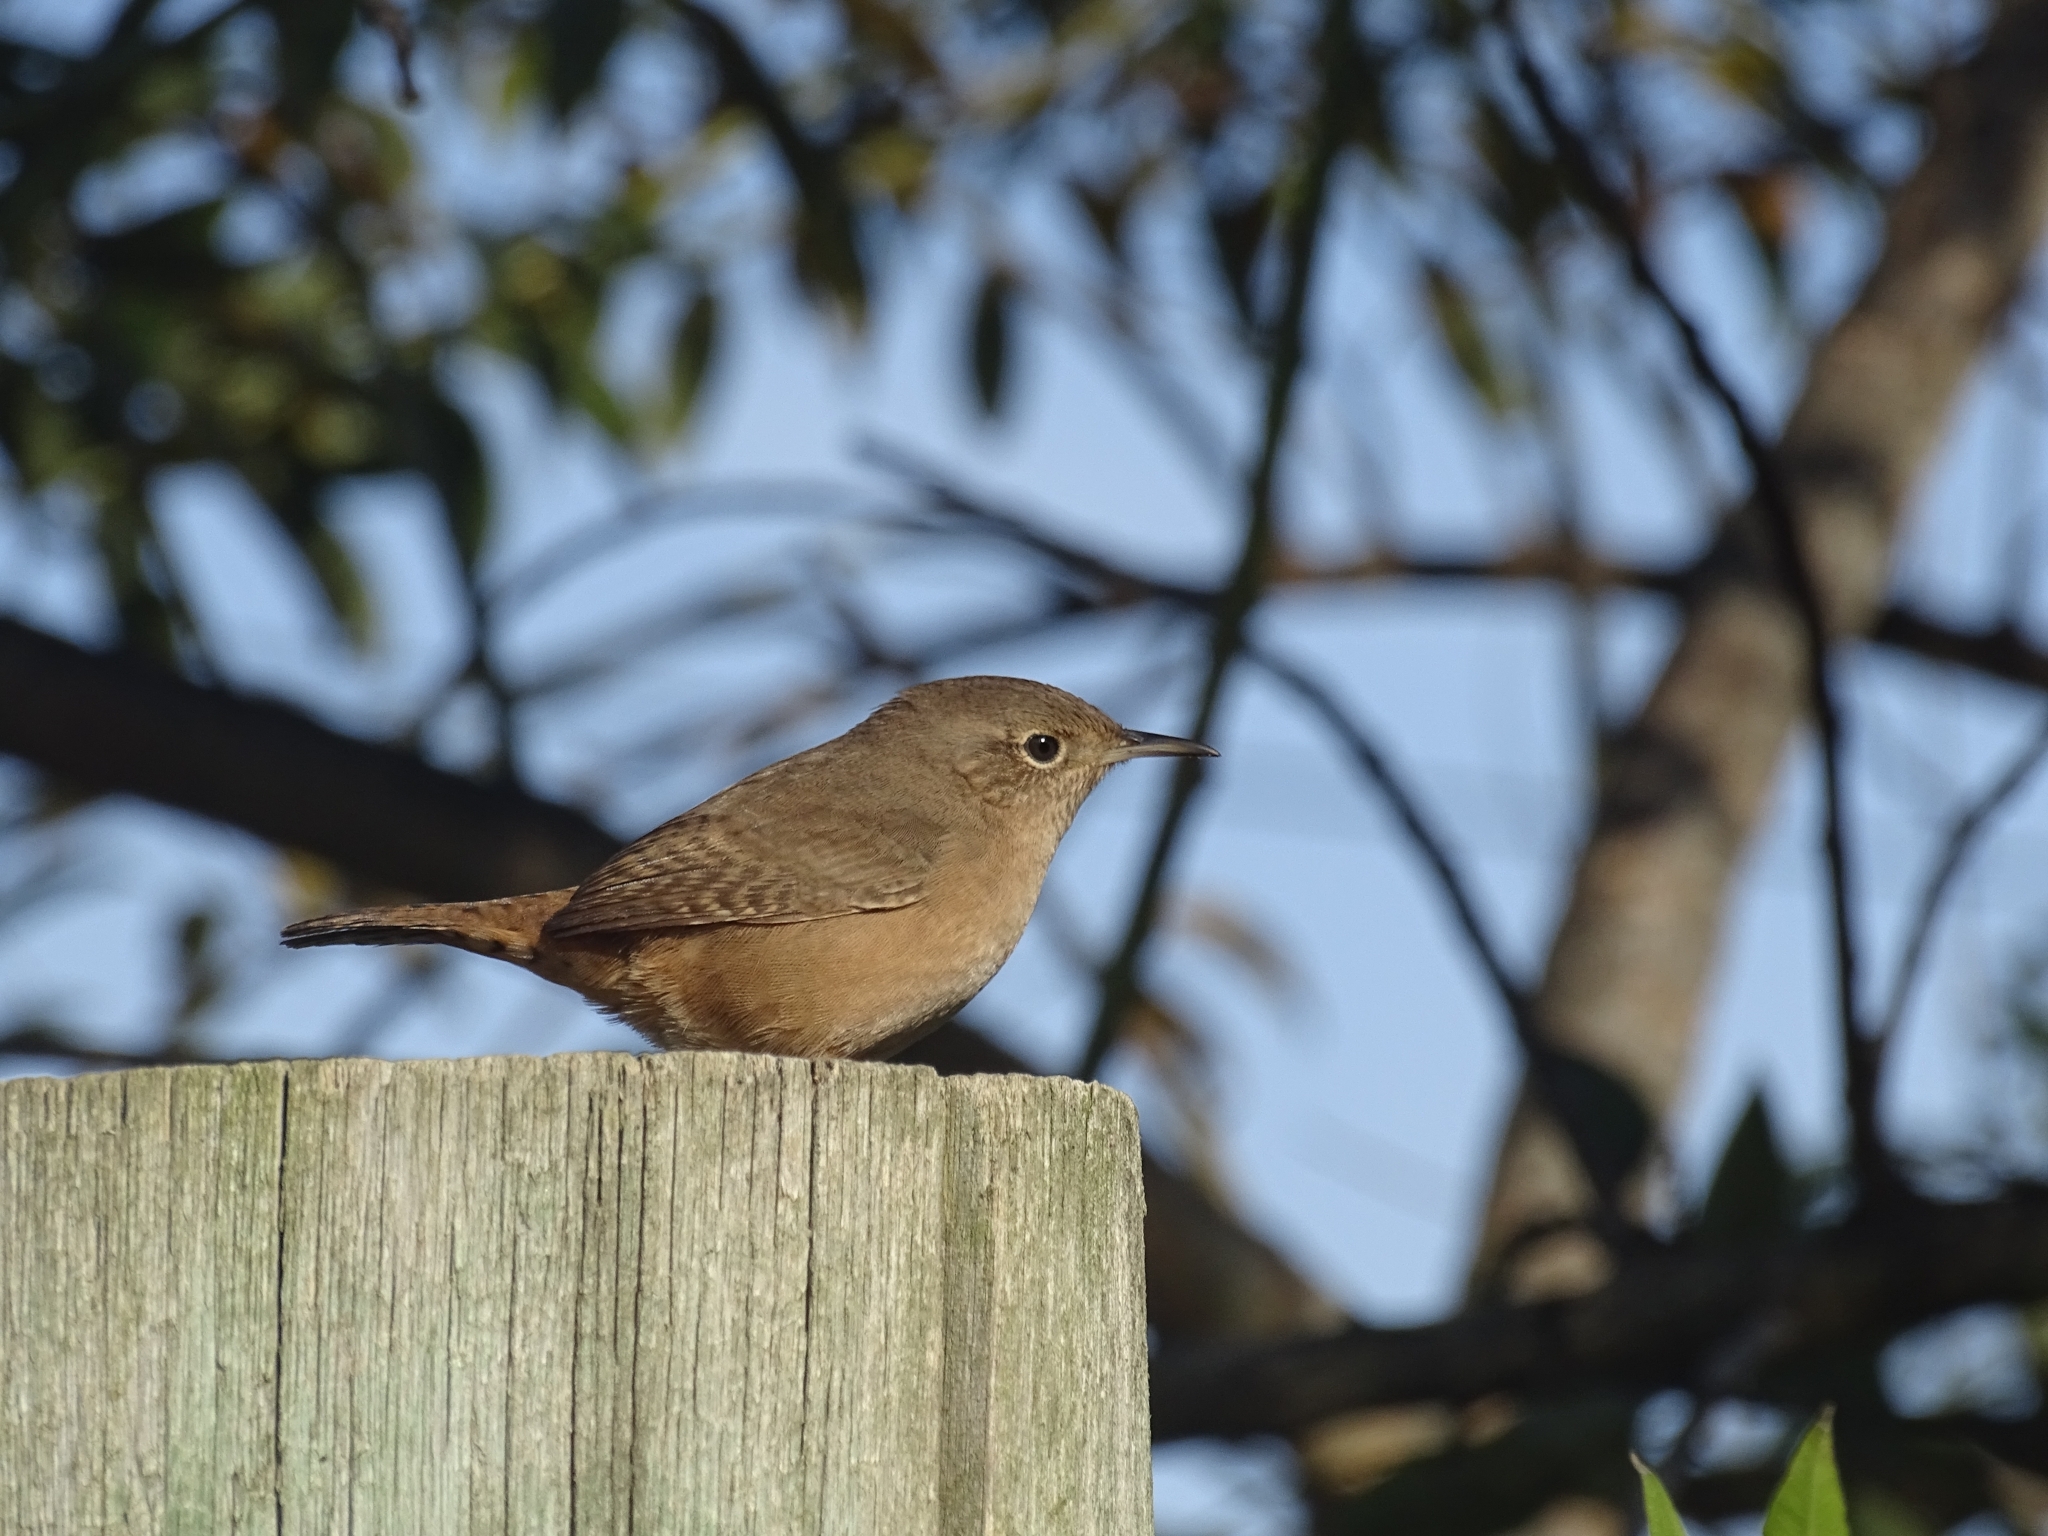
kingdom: Animalia
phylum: Chordata
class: Aves
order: Passeriformes
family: Troglodytidae
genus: Troglodytes
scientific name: Troglodytes aedon
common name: House wren
